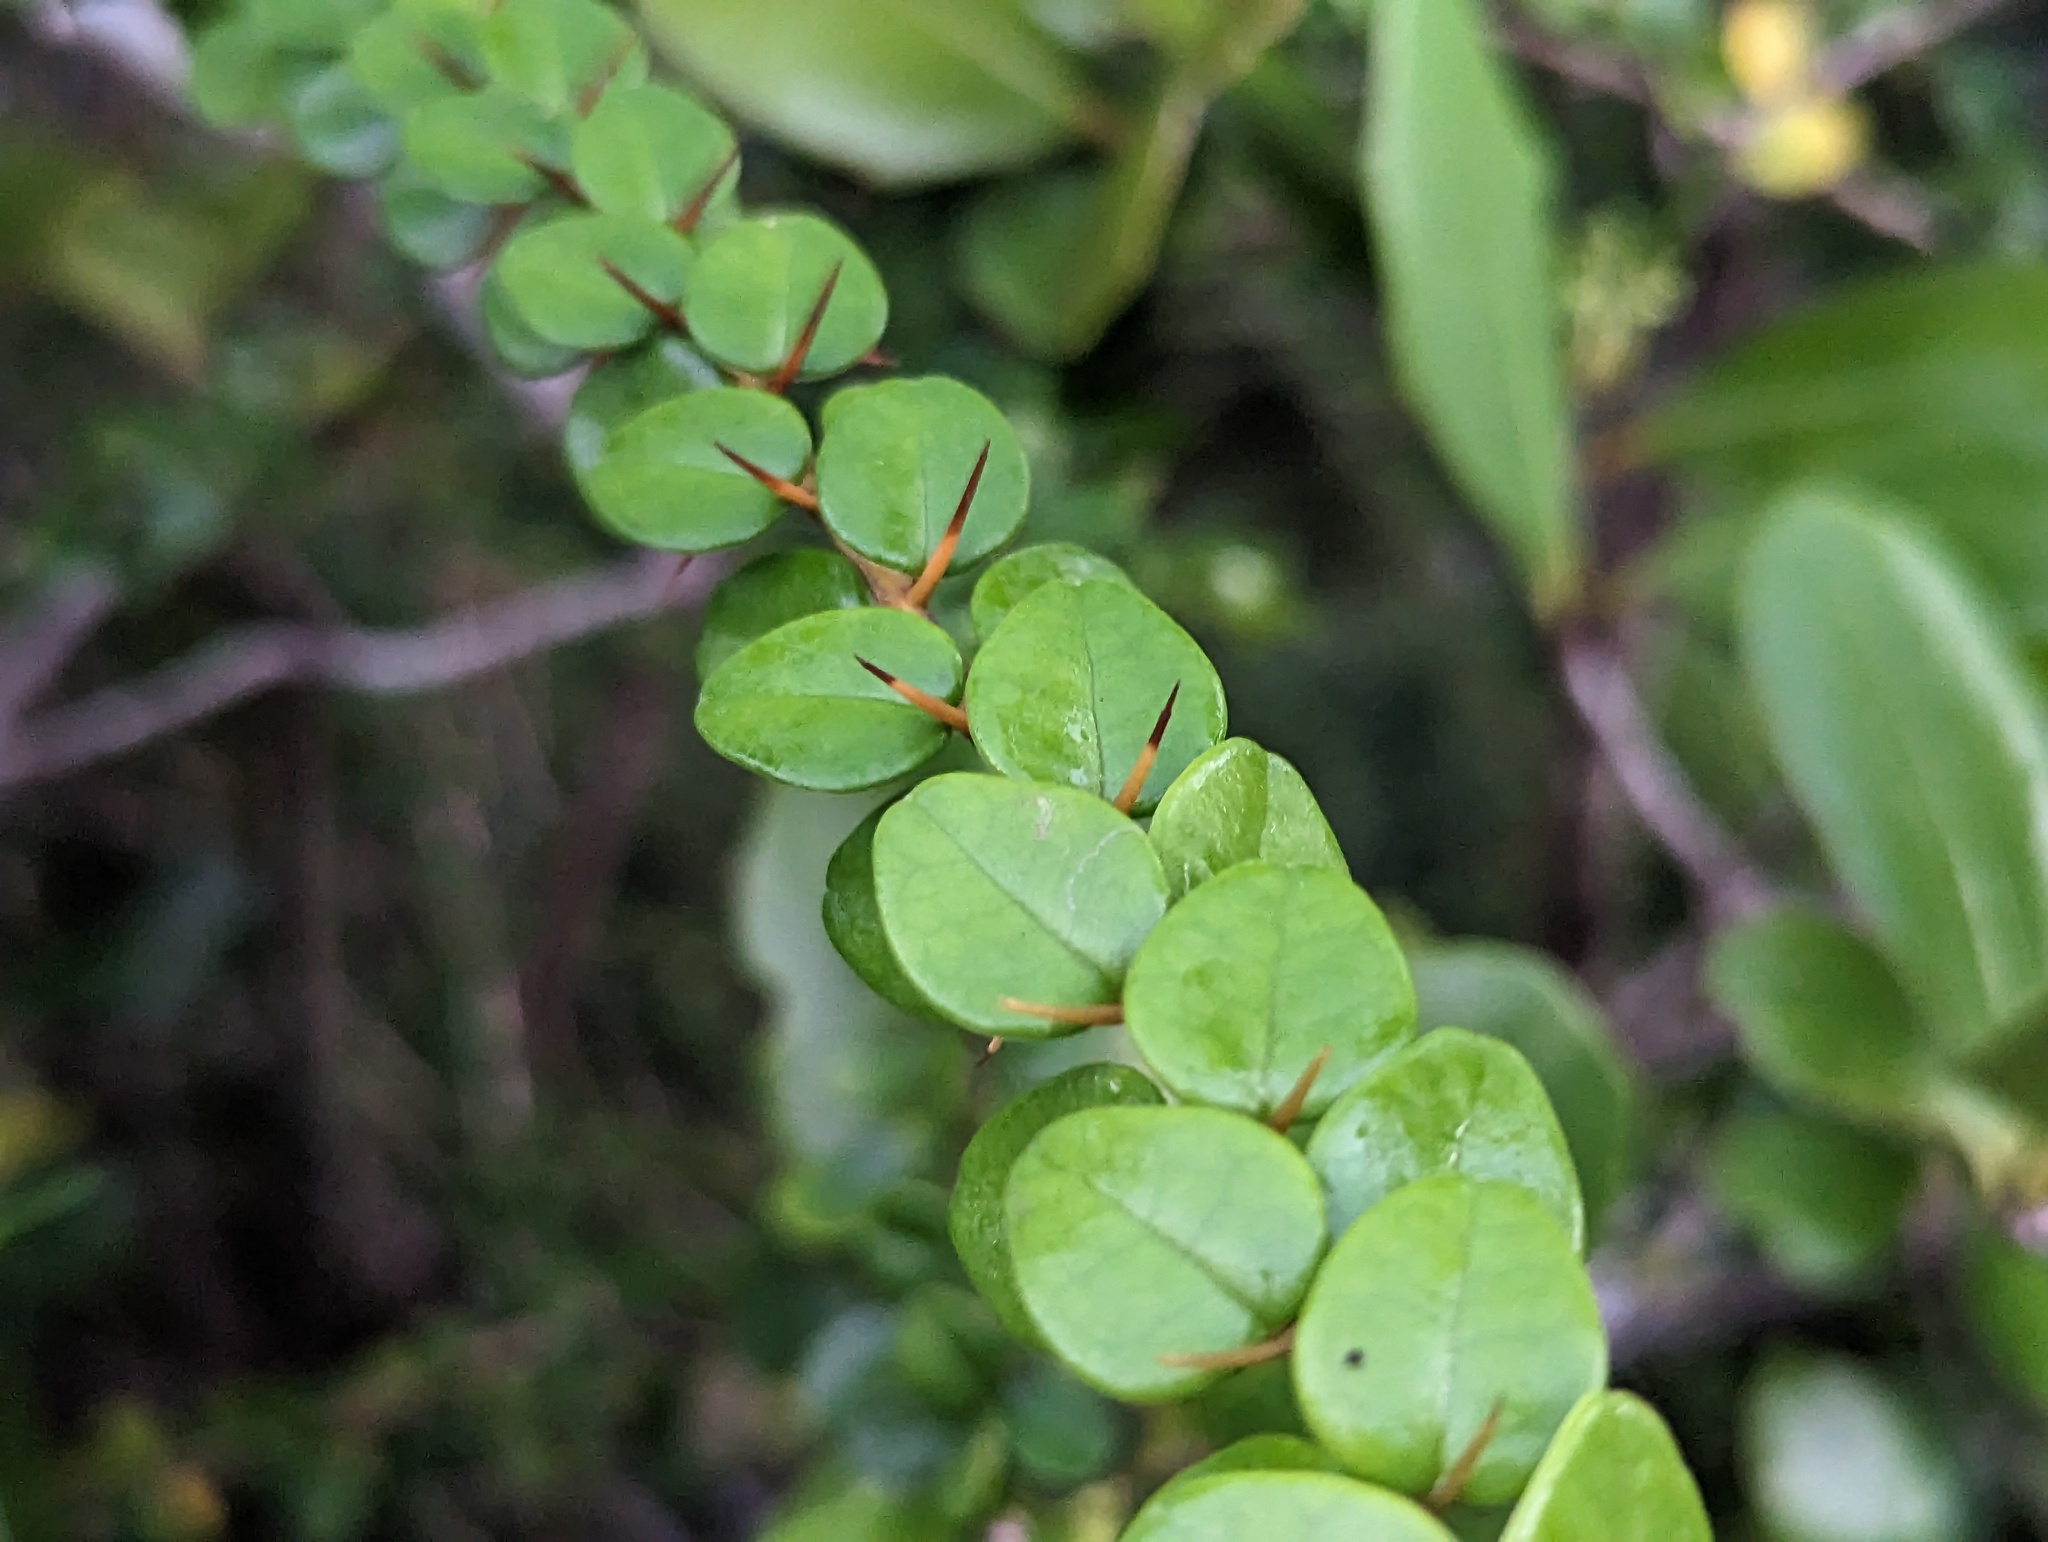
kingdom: Plantae
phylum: Tracheophyta
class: Magnoliopsida
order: Lamiales
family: Acanthaceae
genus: Oplonia
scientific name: Oplonia spinosa
